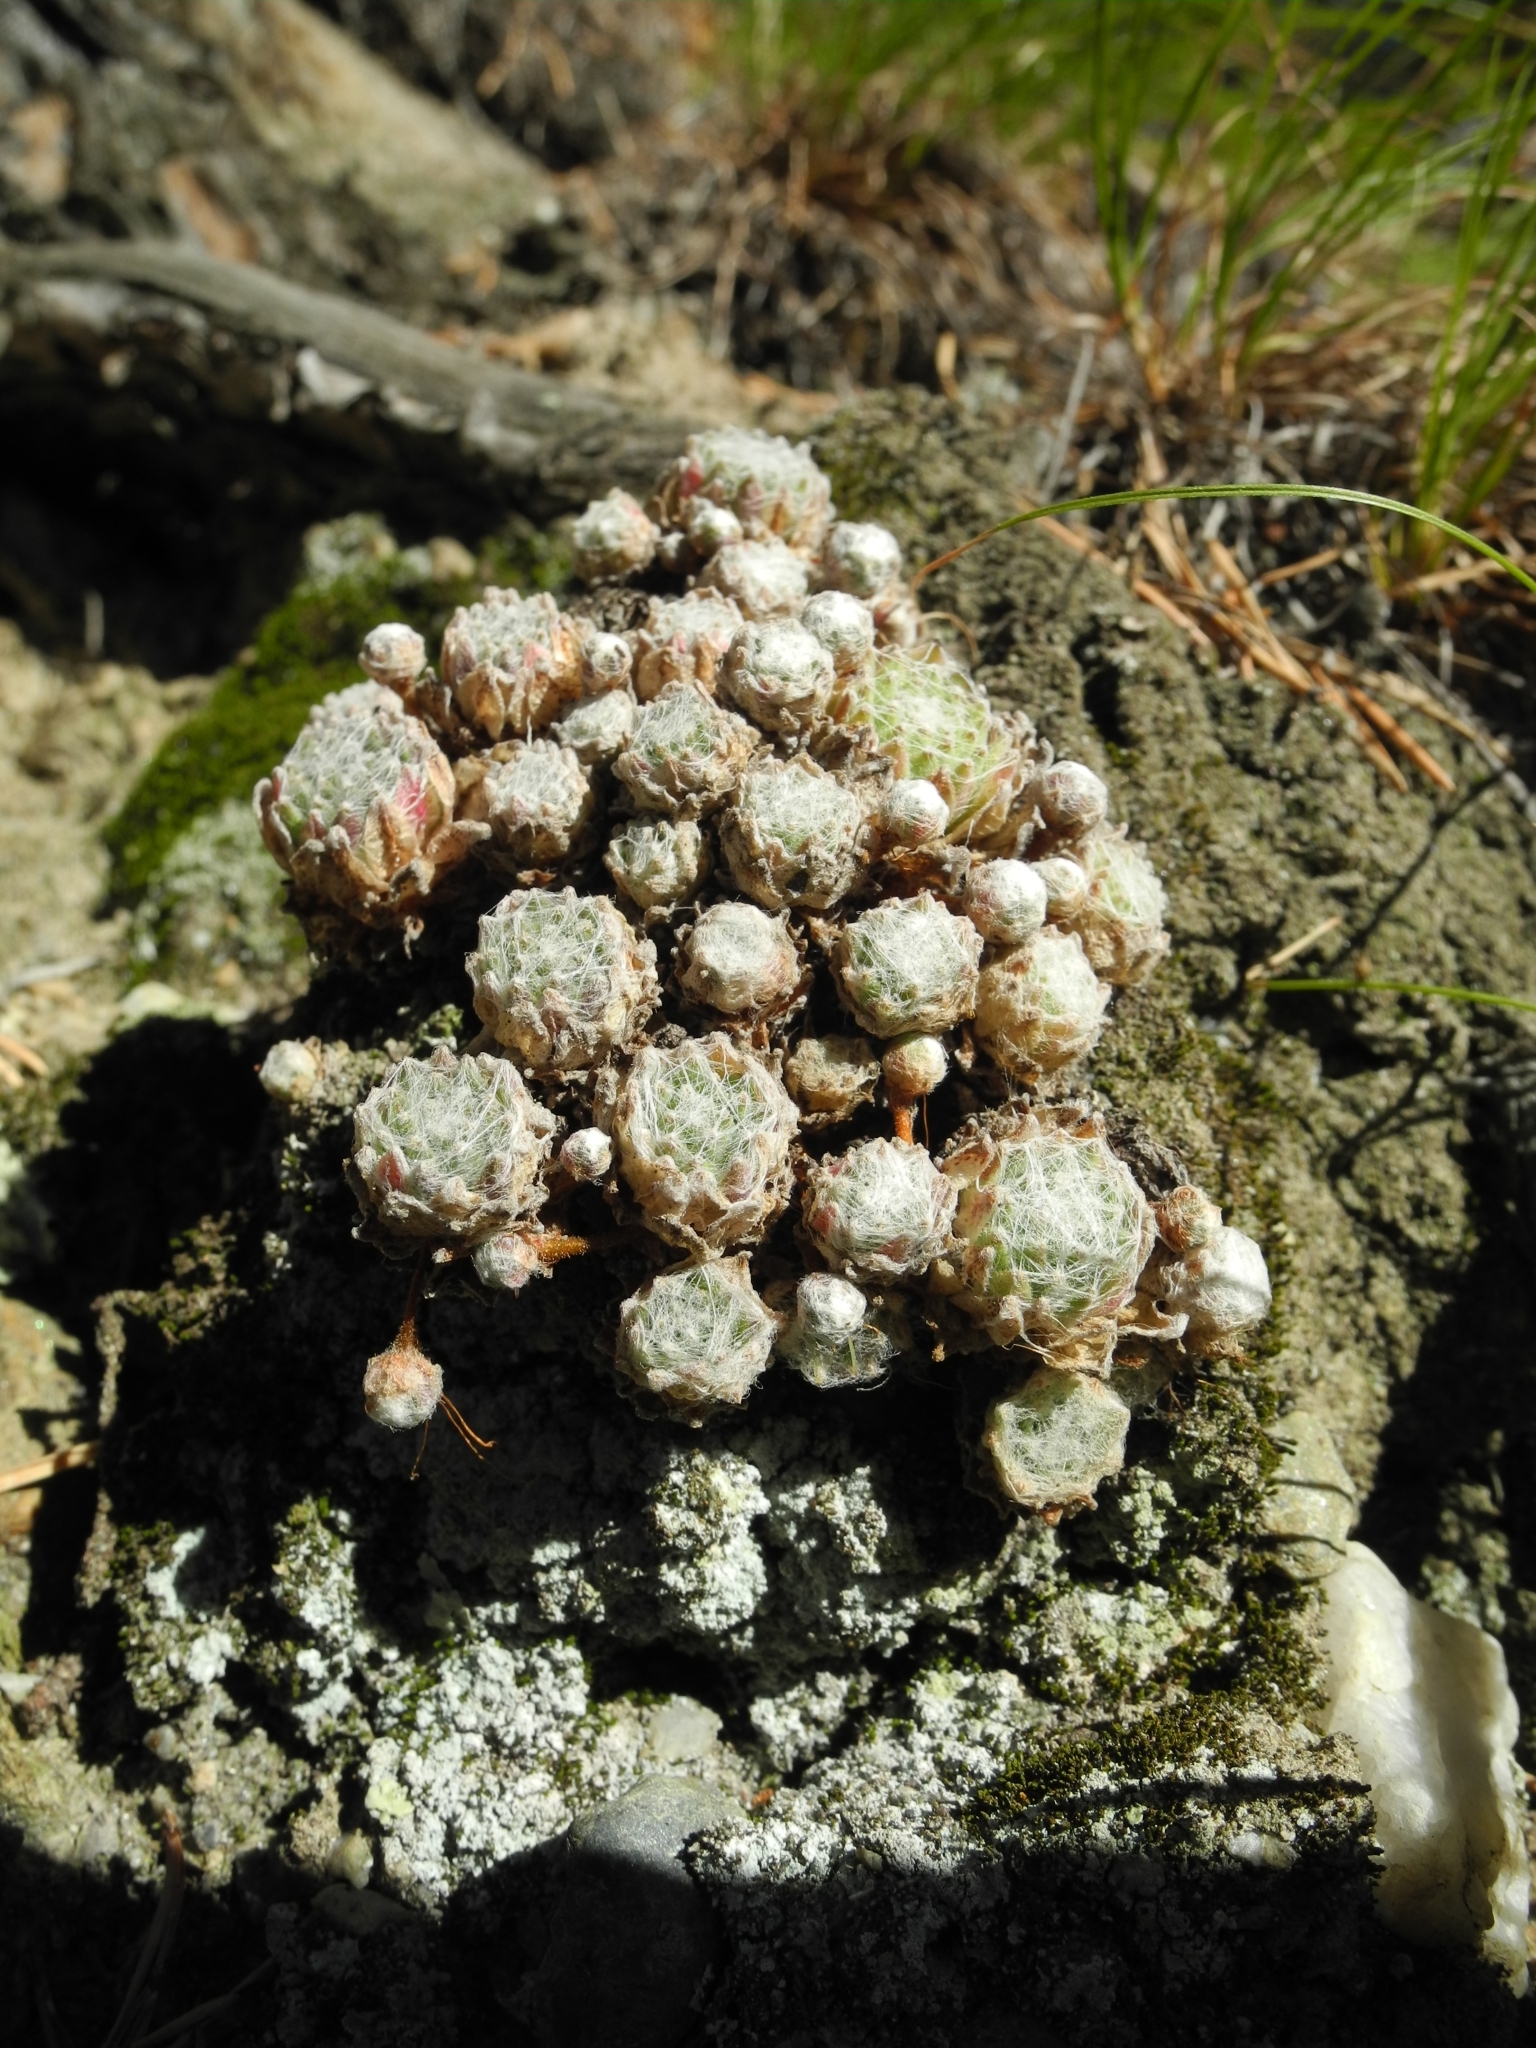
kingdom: Plantae
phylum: Tracheophyta
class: Magnoliopsida
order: Saxifragales
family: Crassulaceae
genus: Sempervivum
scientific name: Sempervivum arachnoideum
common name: Cobweb house-leek
